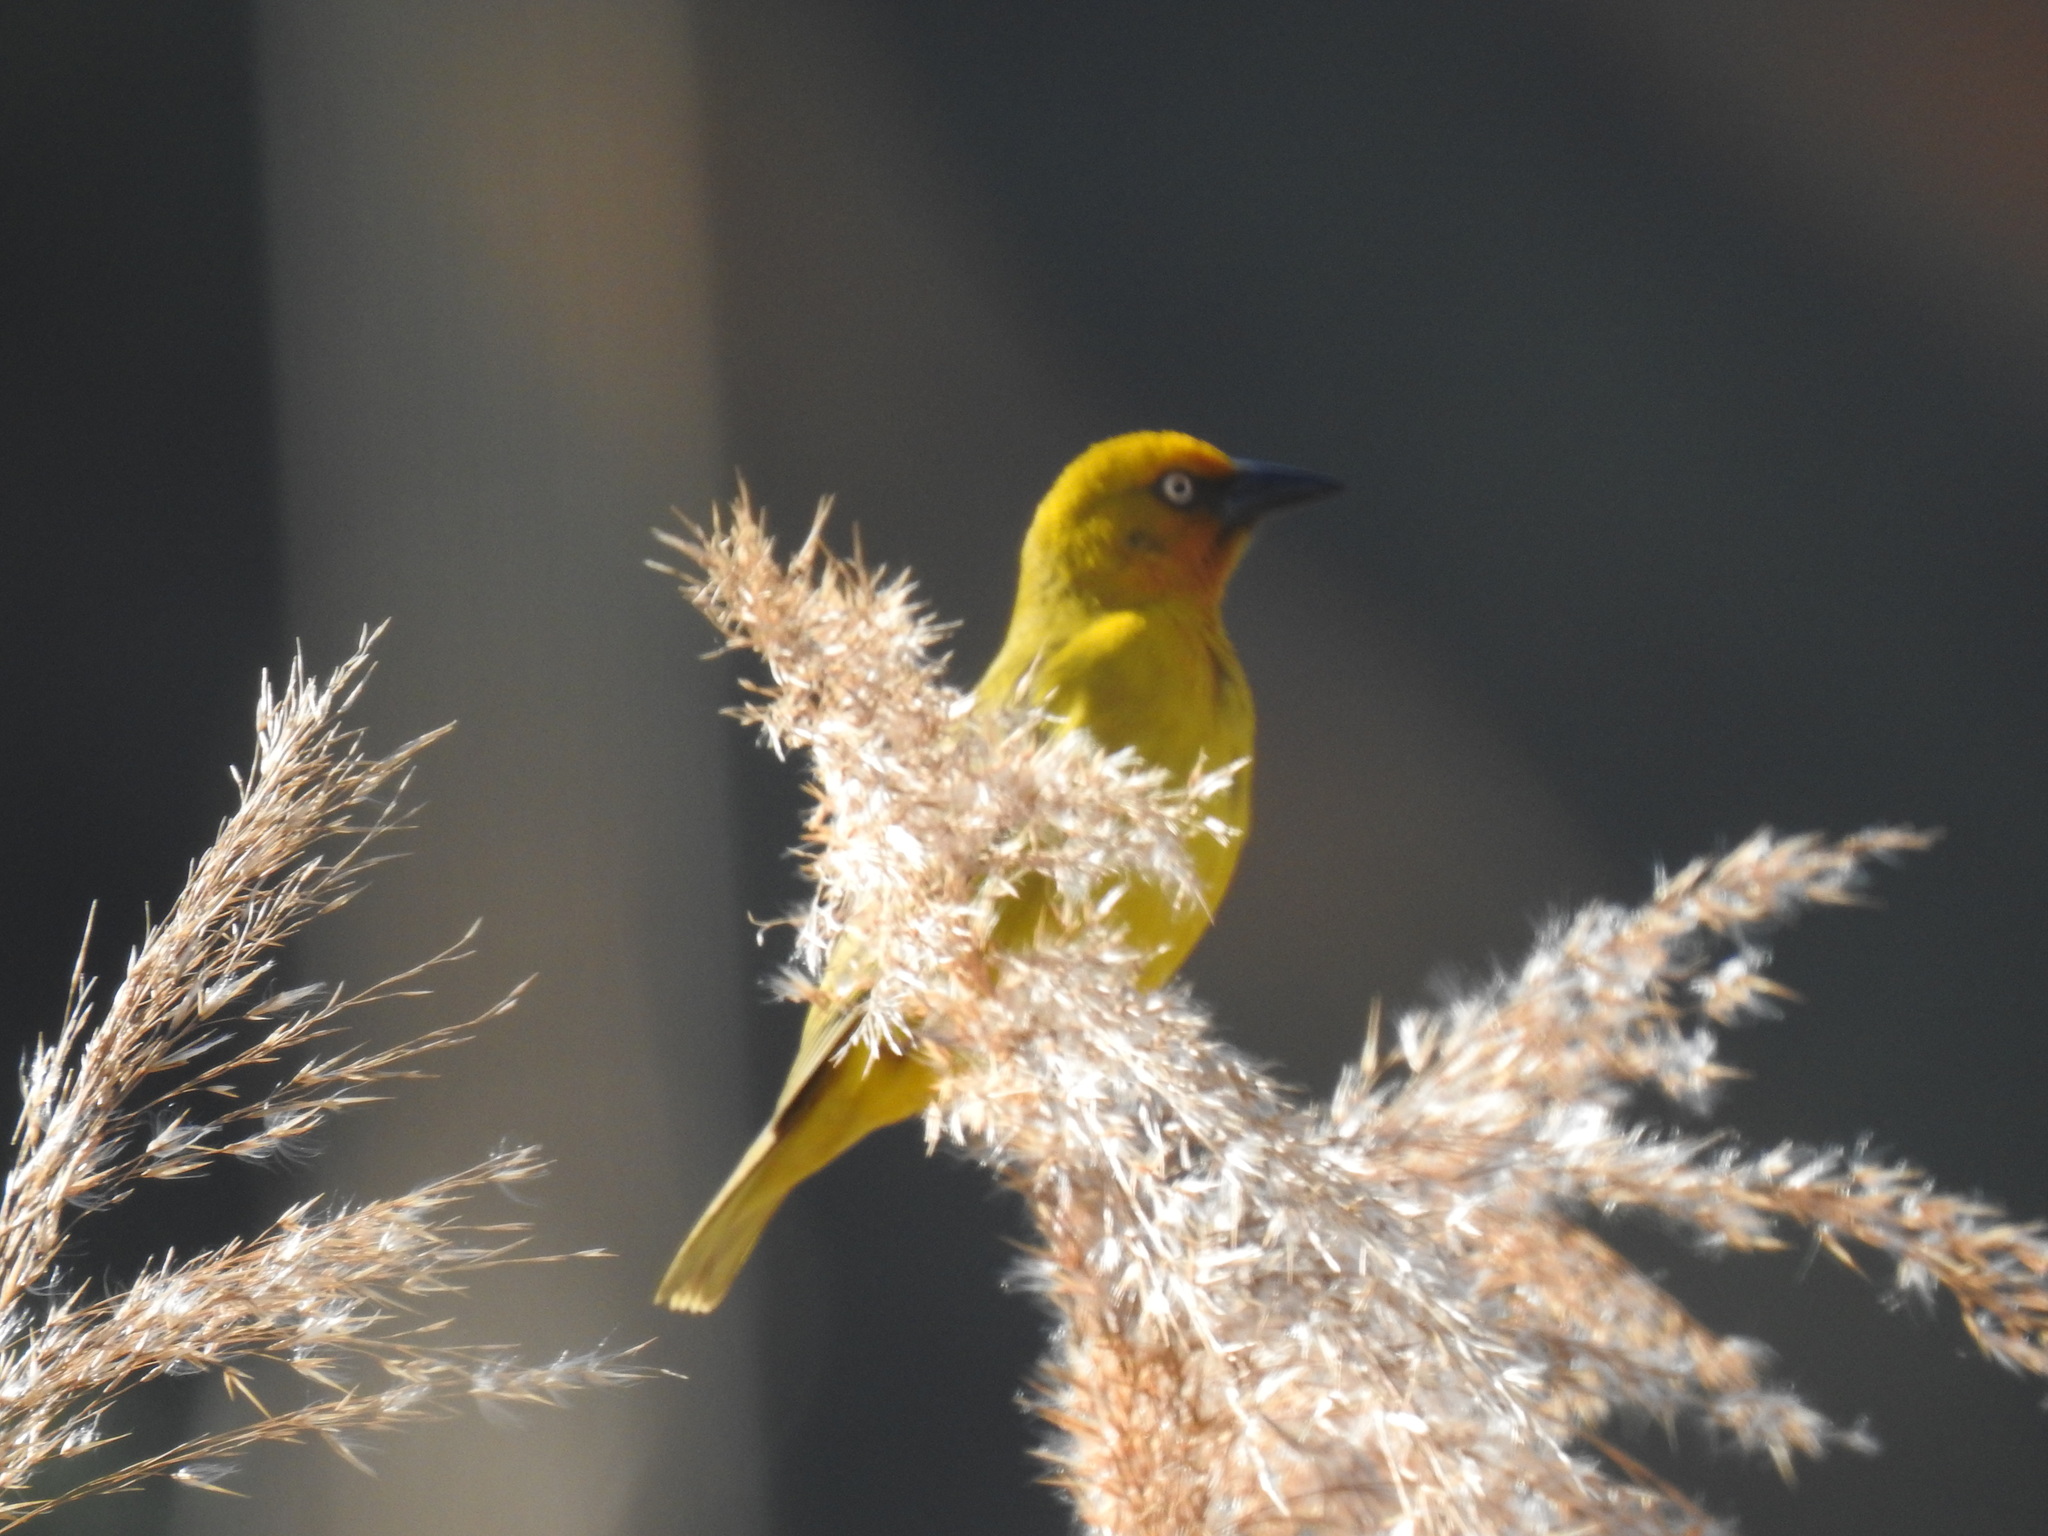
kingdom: Animalia
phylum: Chordata
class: Aves
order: Passeriformes
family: Ploceidae
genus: Ploceus
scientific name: Ploceus capensis
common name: Cape weaver
